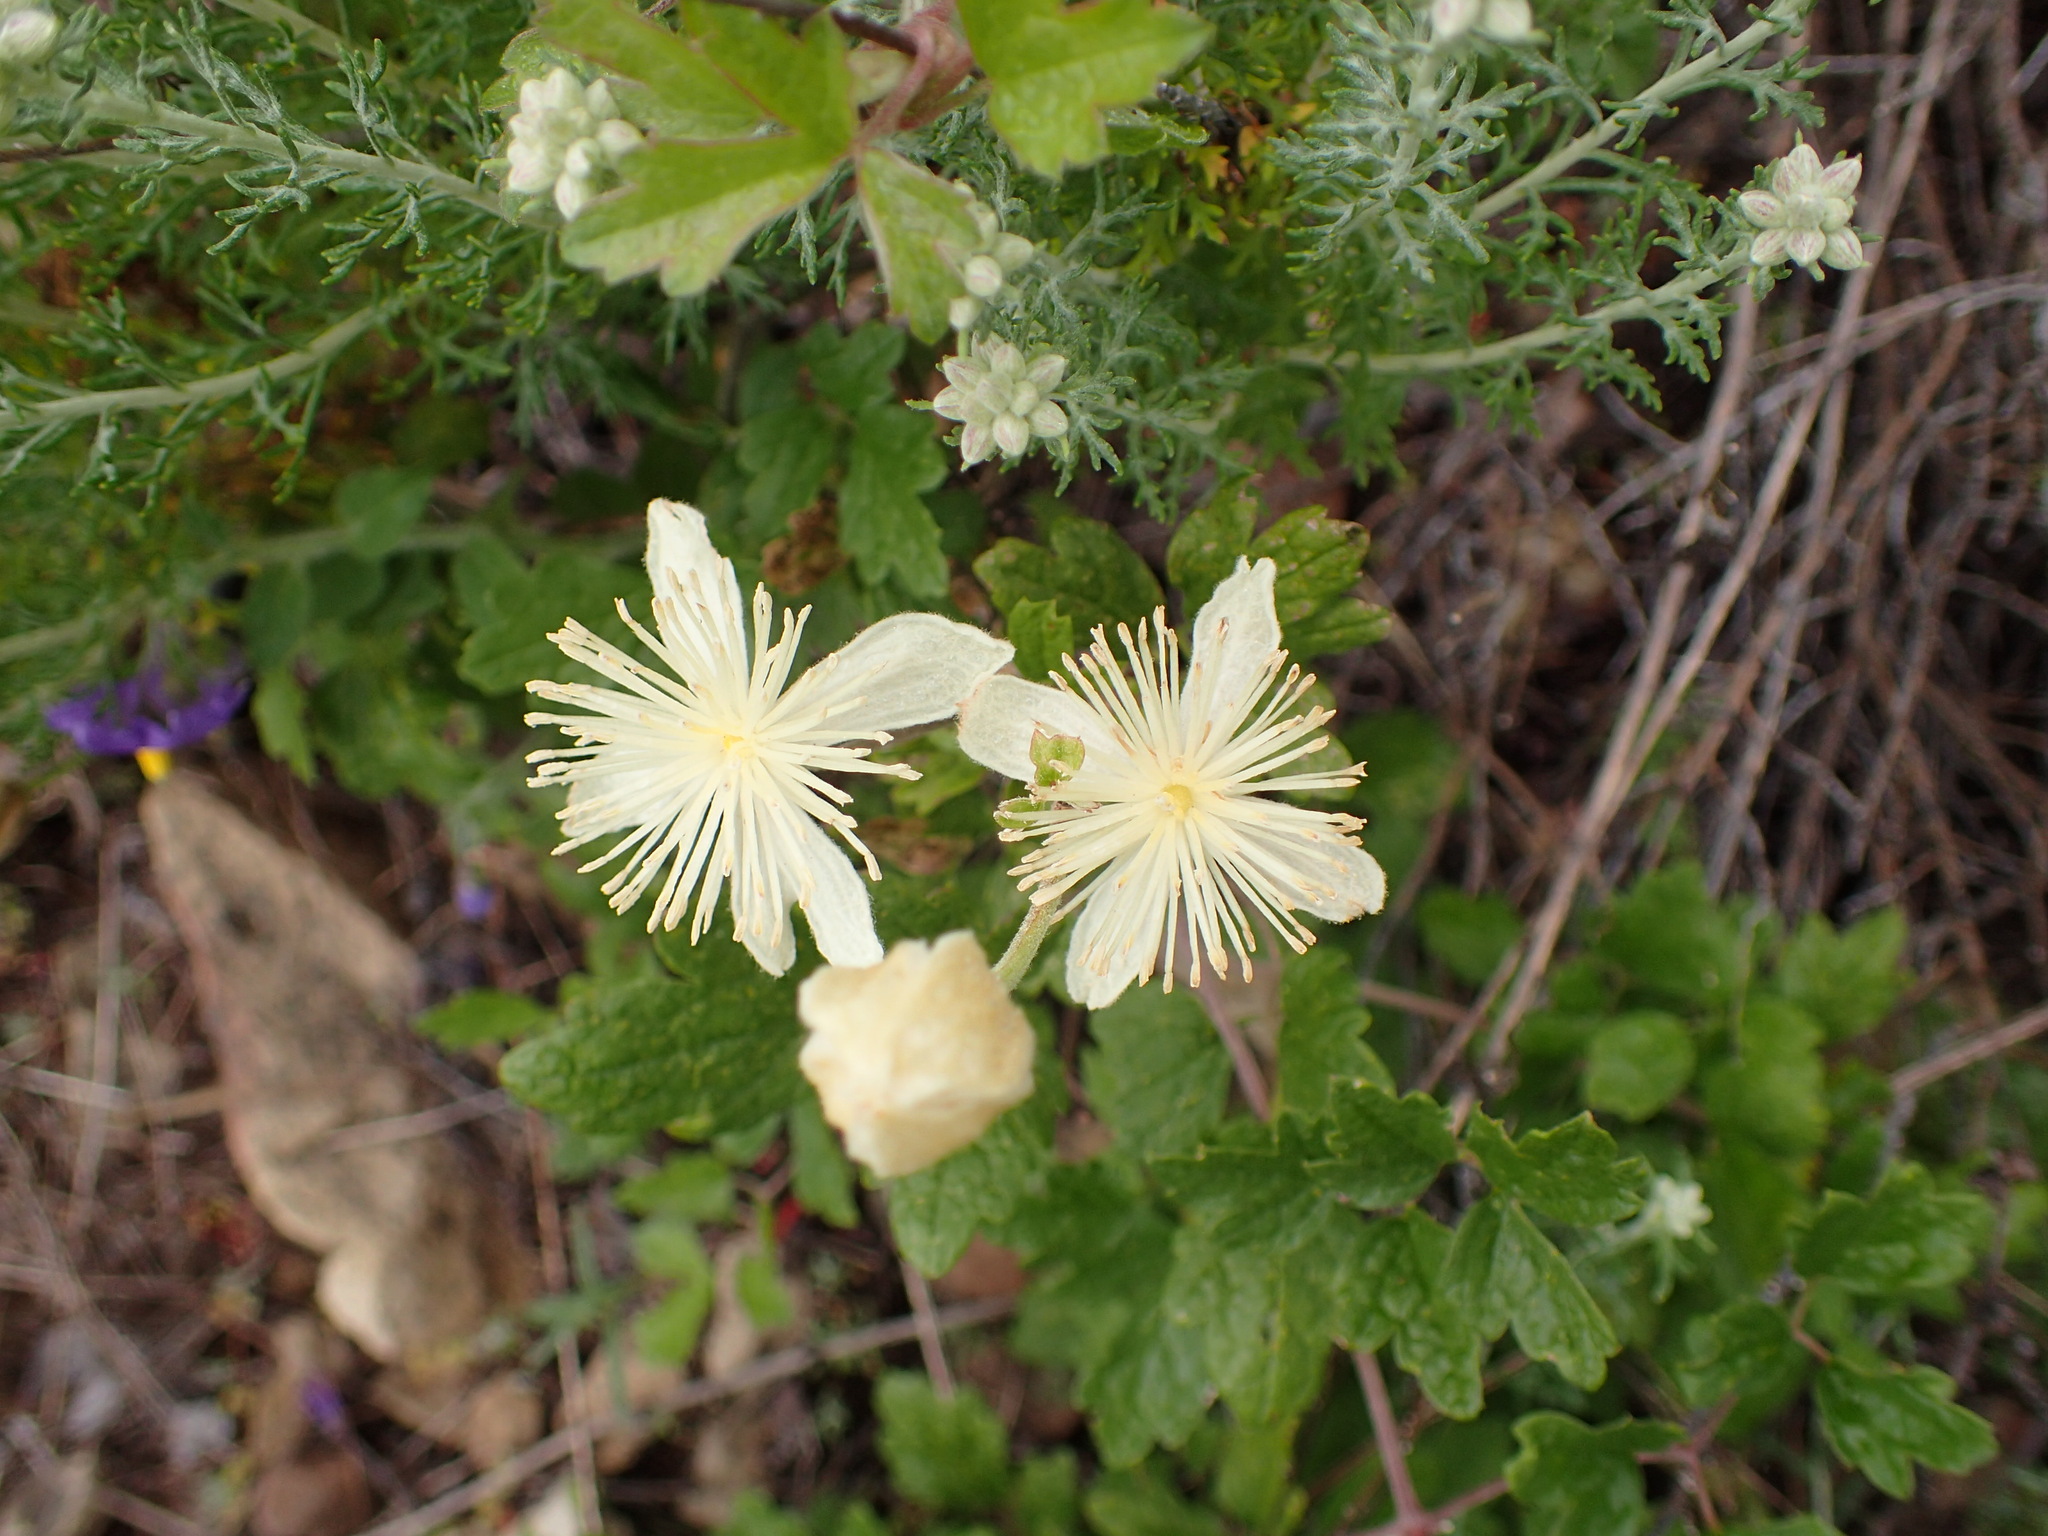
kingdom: Plantae
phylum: Tracheophyta
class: Magnoliopsida
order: Ranunculales
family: Ranunculaceae
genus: Clematis
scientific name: Clematis lasiantha
